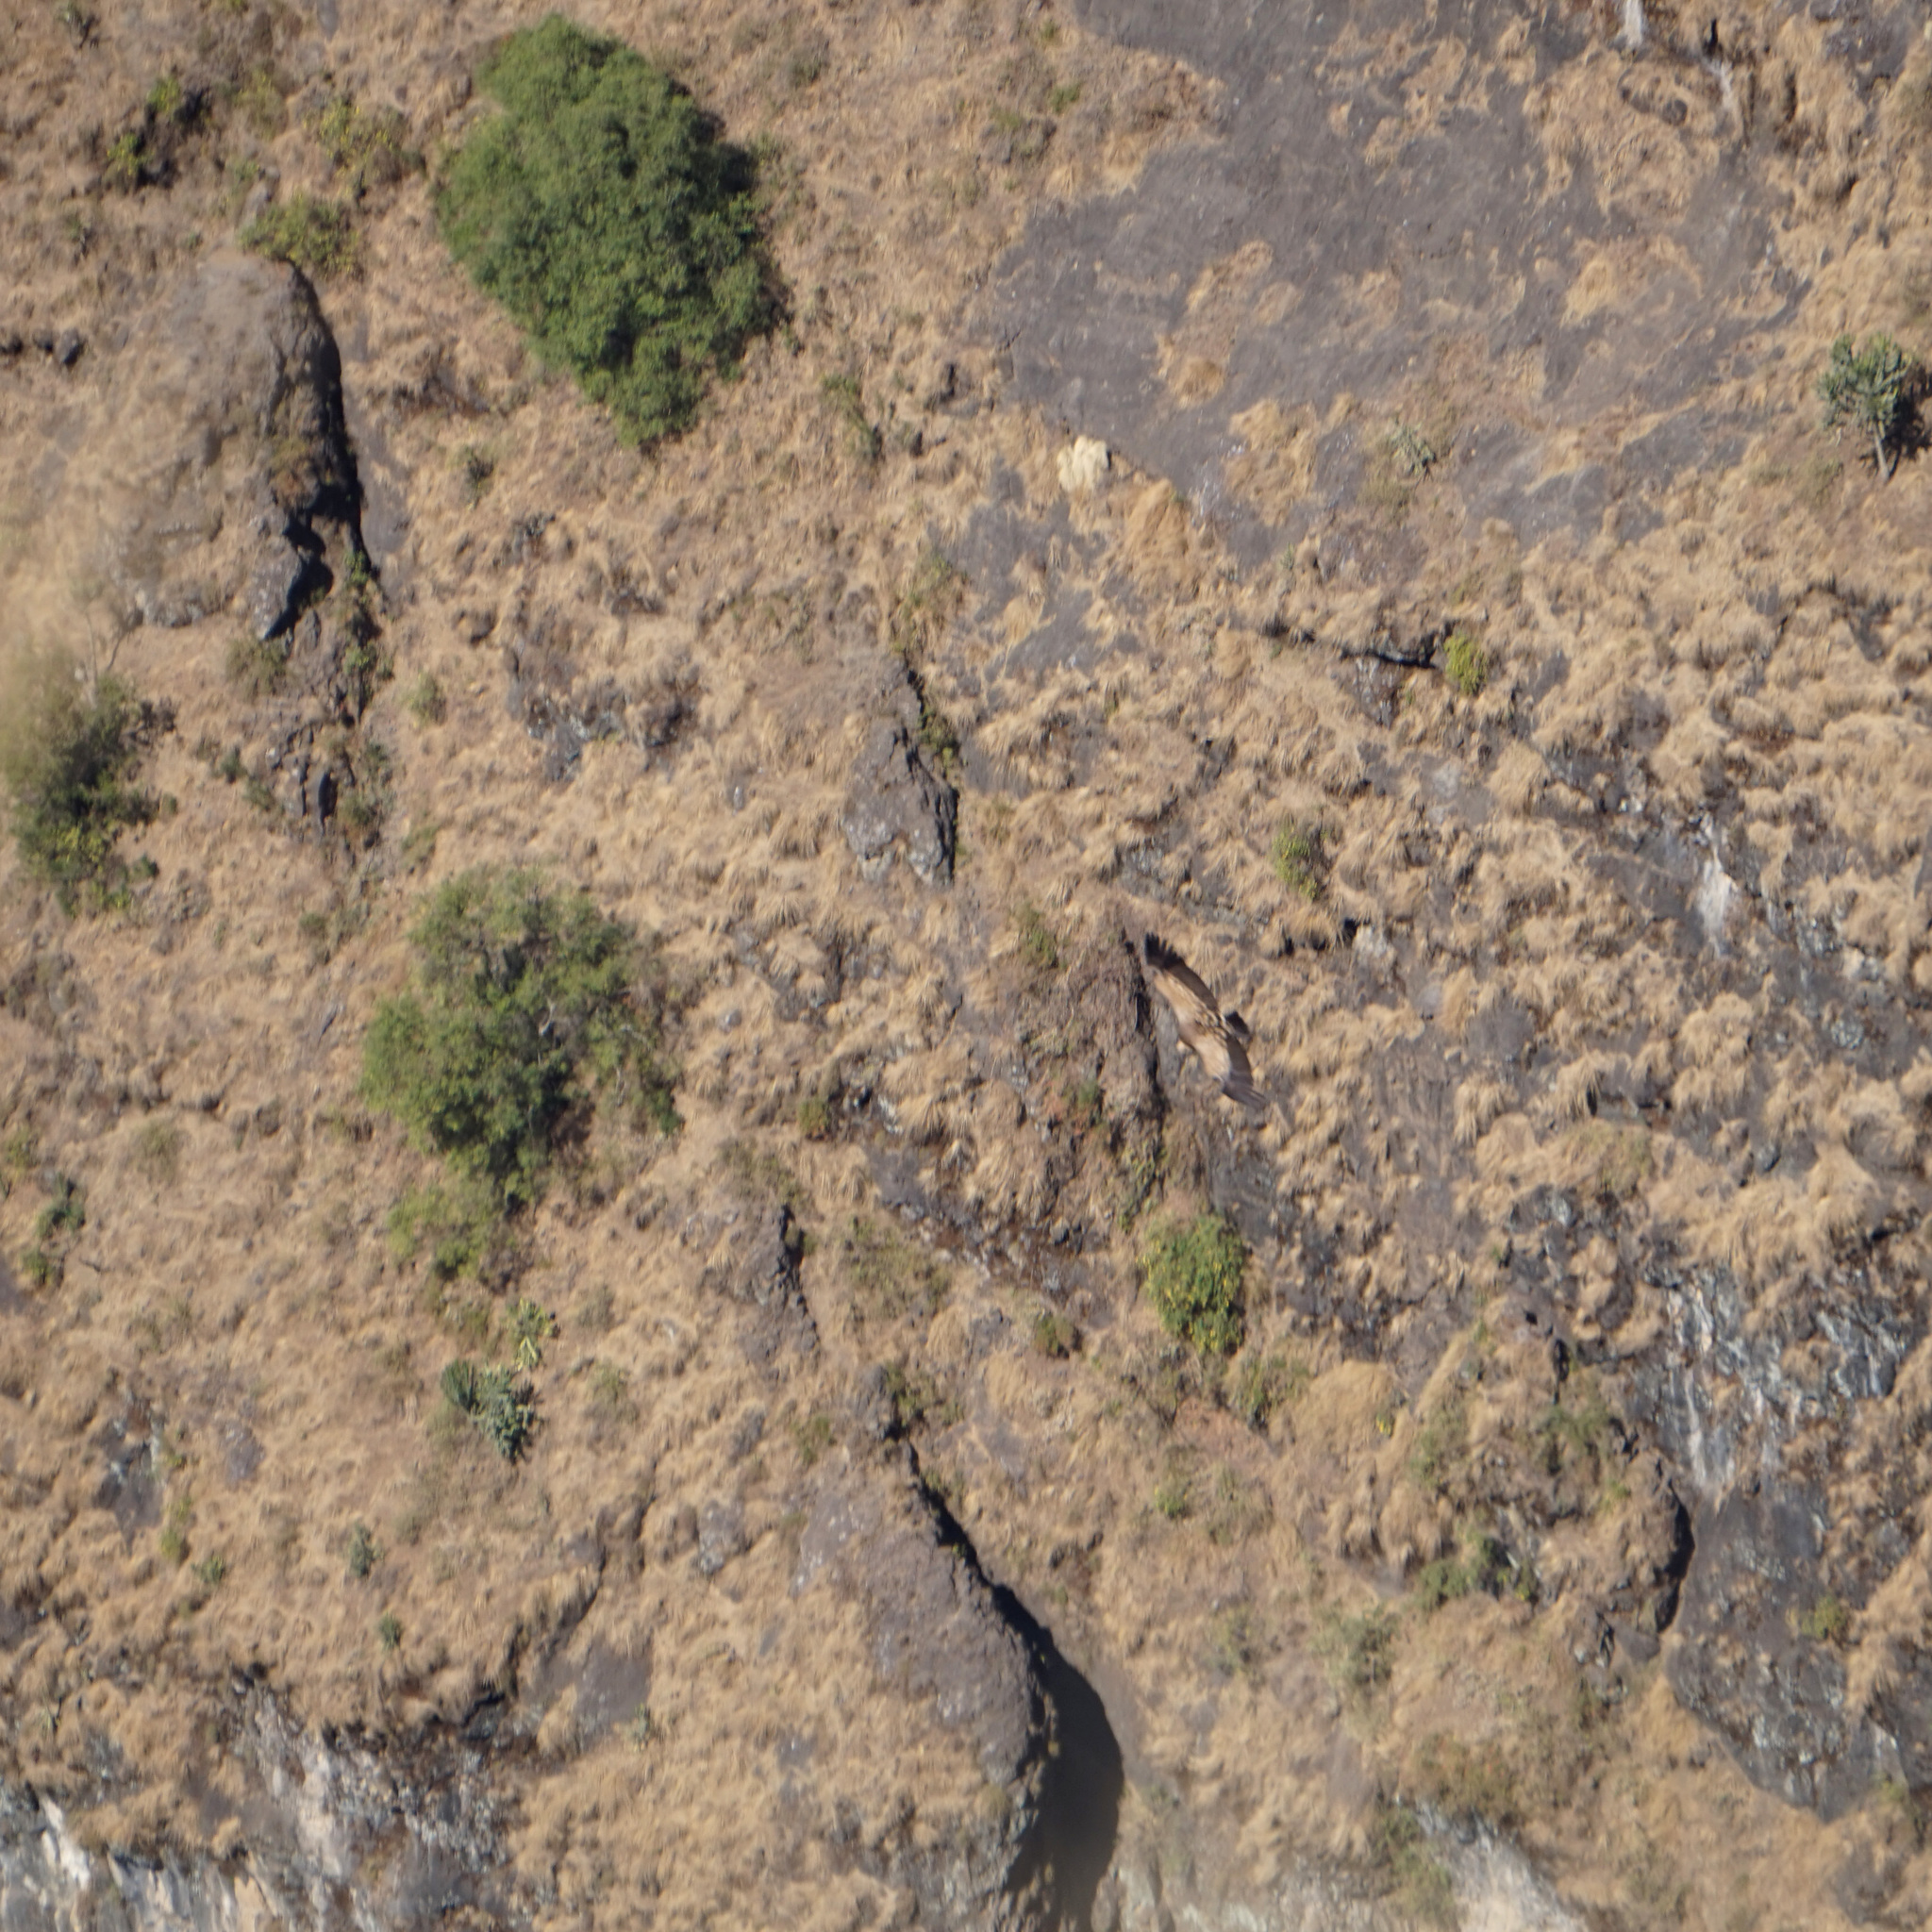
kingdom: Animalia
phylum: Chordata
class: Aves
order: Accipitriformes
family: Accipitridae
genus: Gyps
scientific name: Gyps rueppellii
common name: Rüppell's vulture
